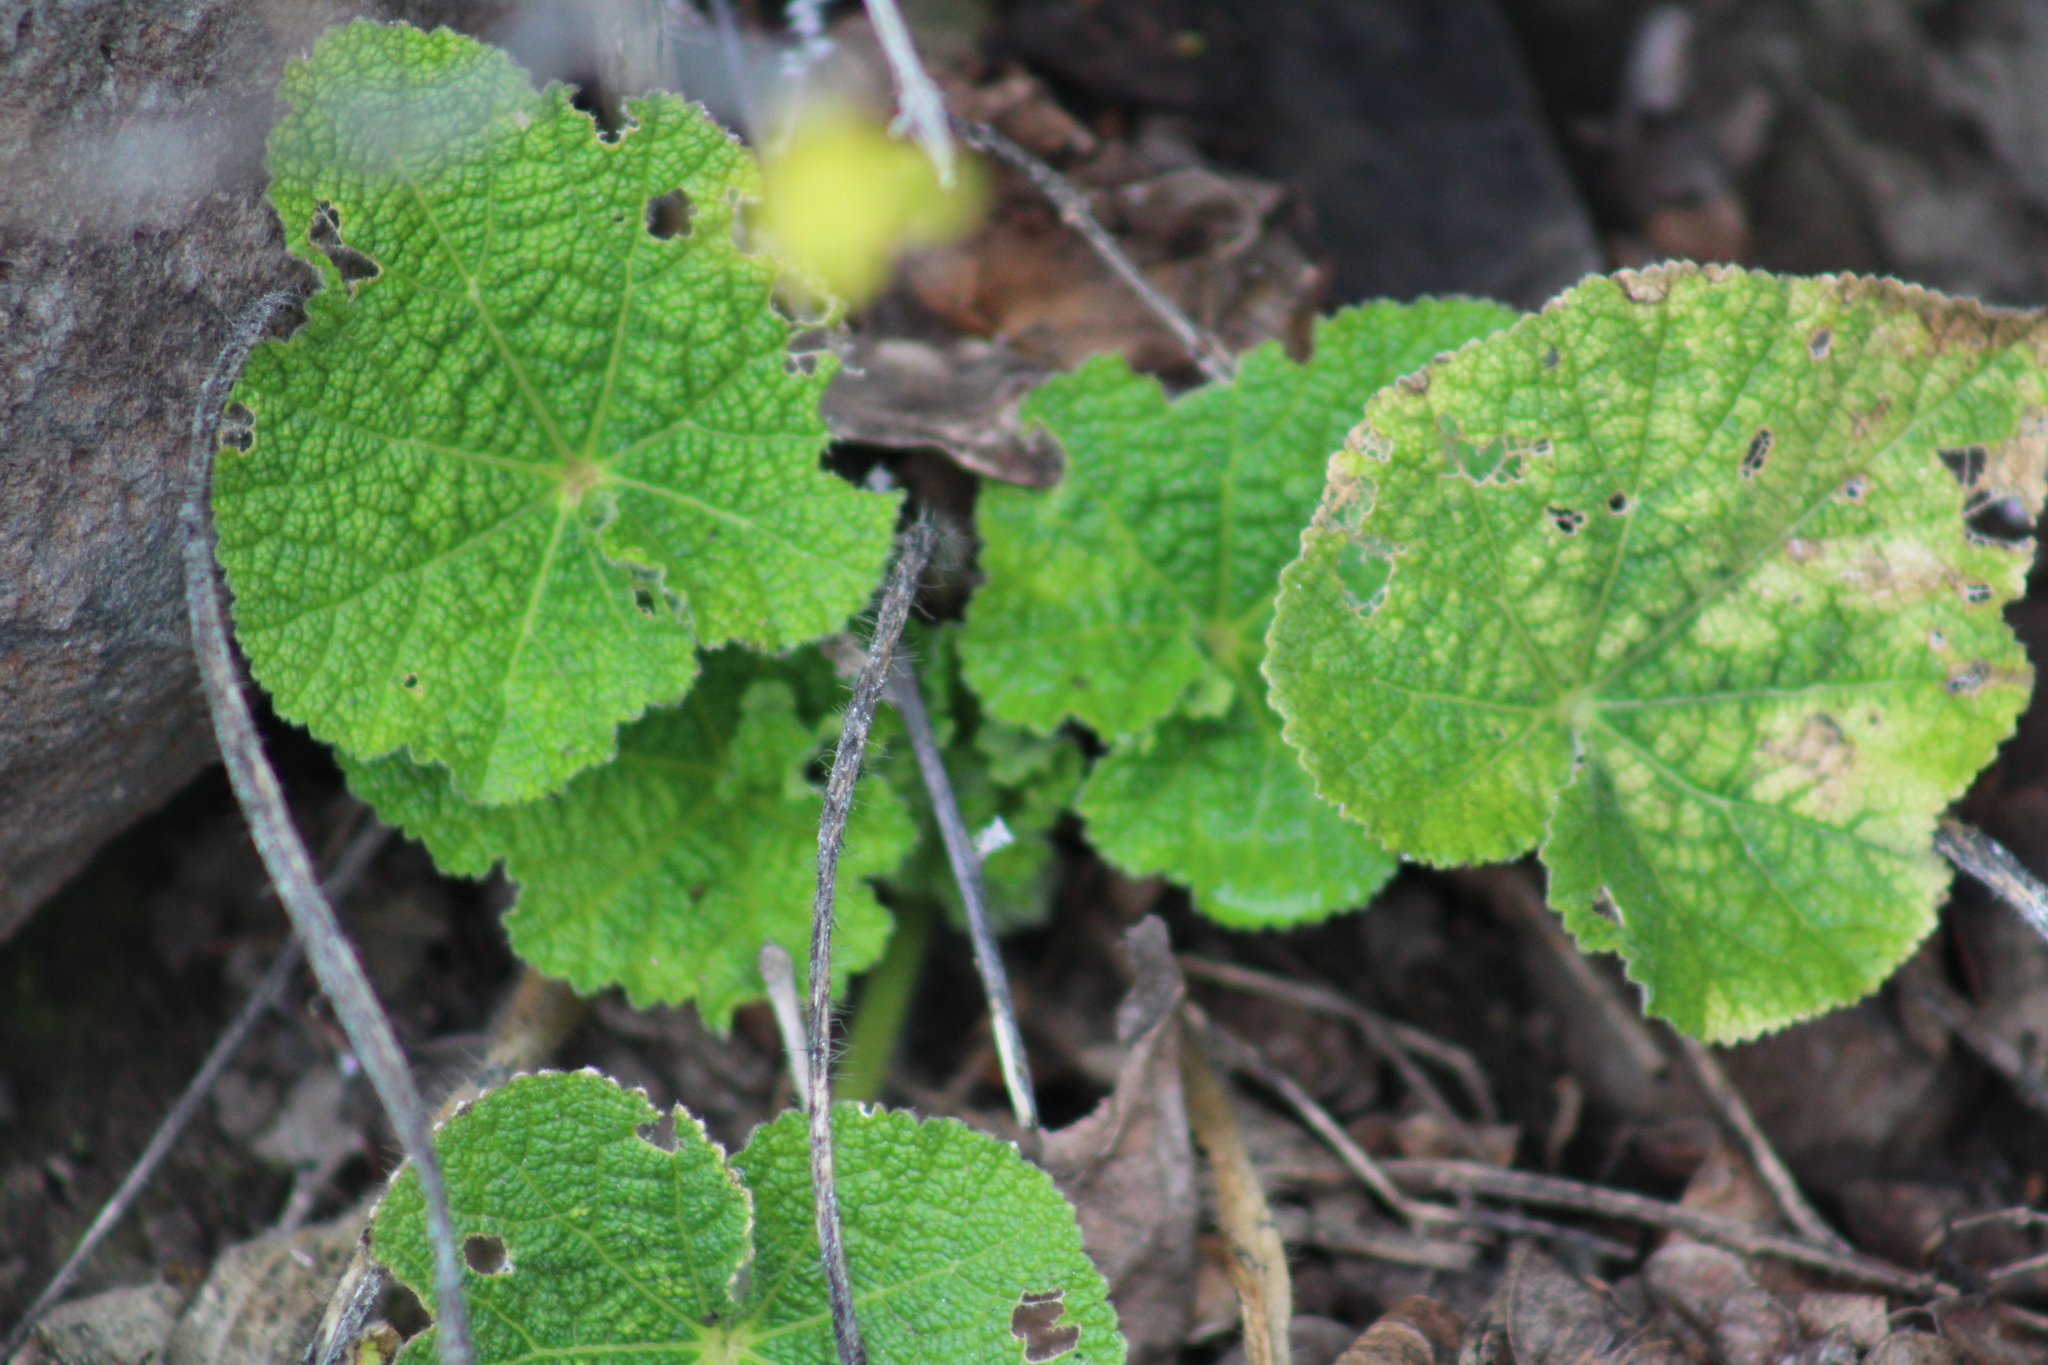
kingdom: Plantae
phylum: Tracheophyta
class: Magnoliopsida
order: Malvales
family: Malvaceae
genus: Alcea
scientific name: Alcea rosea
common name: Hollyhock
